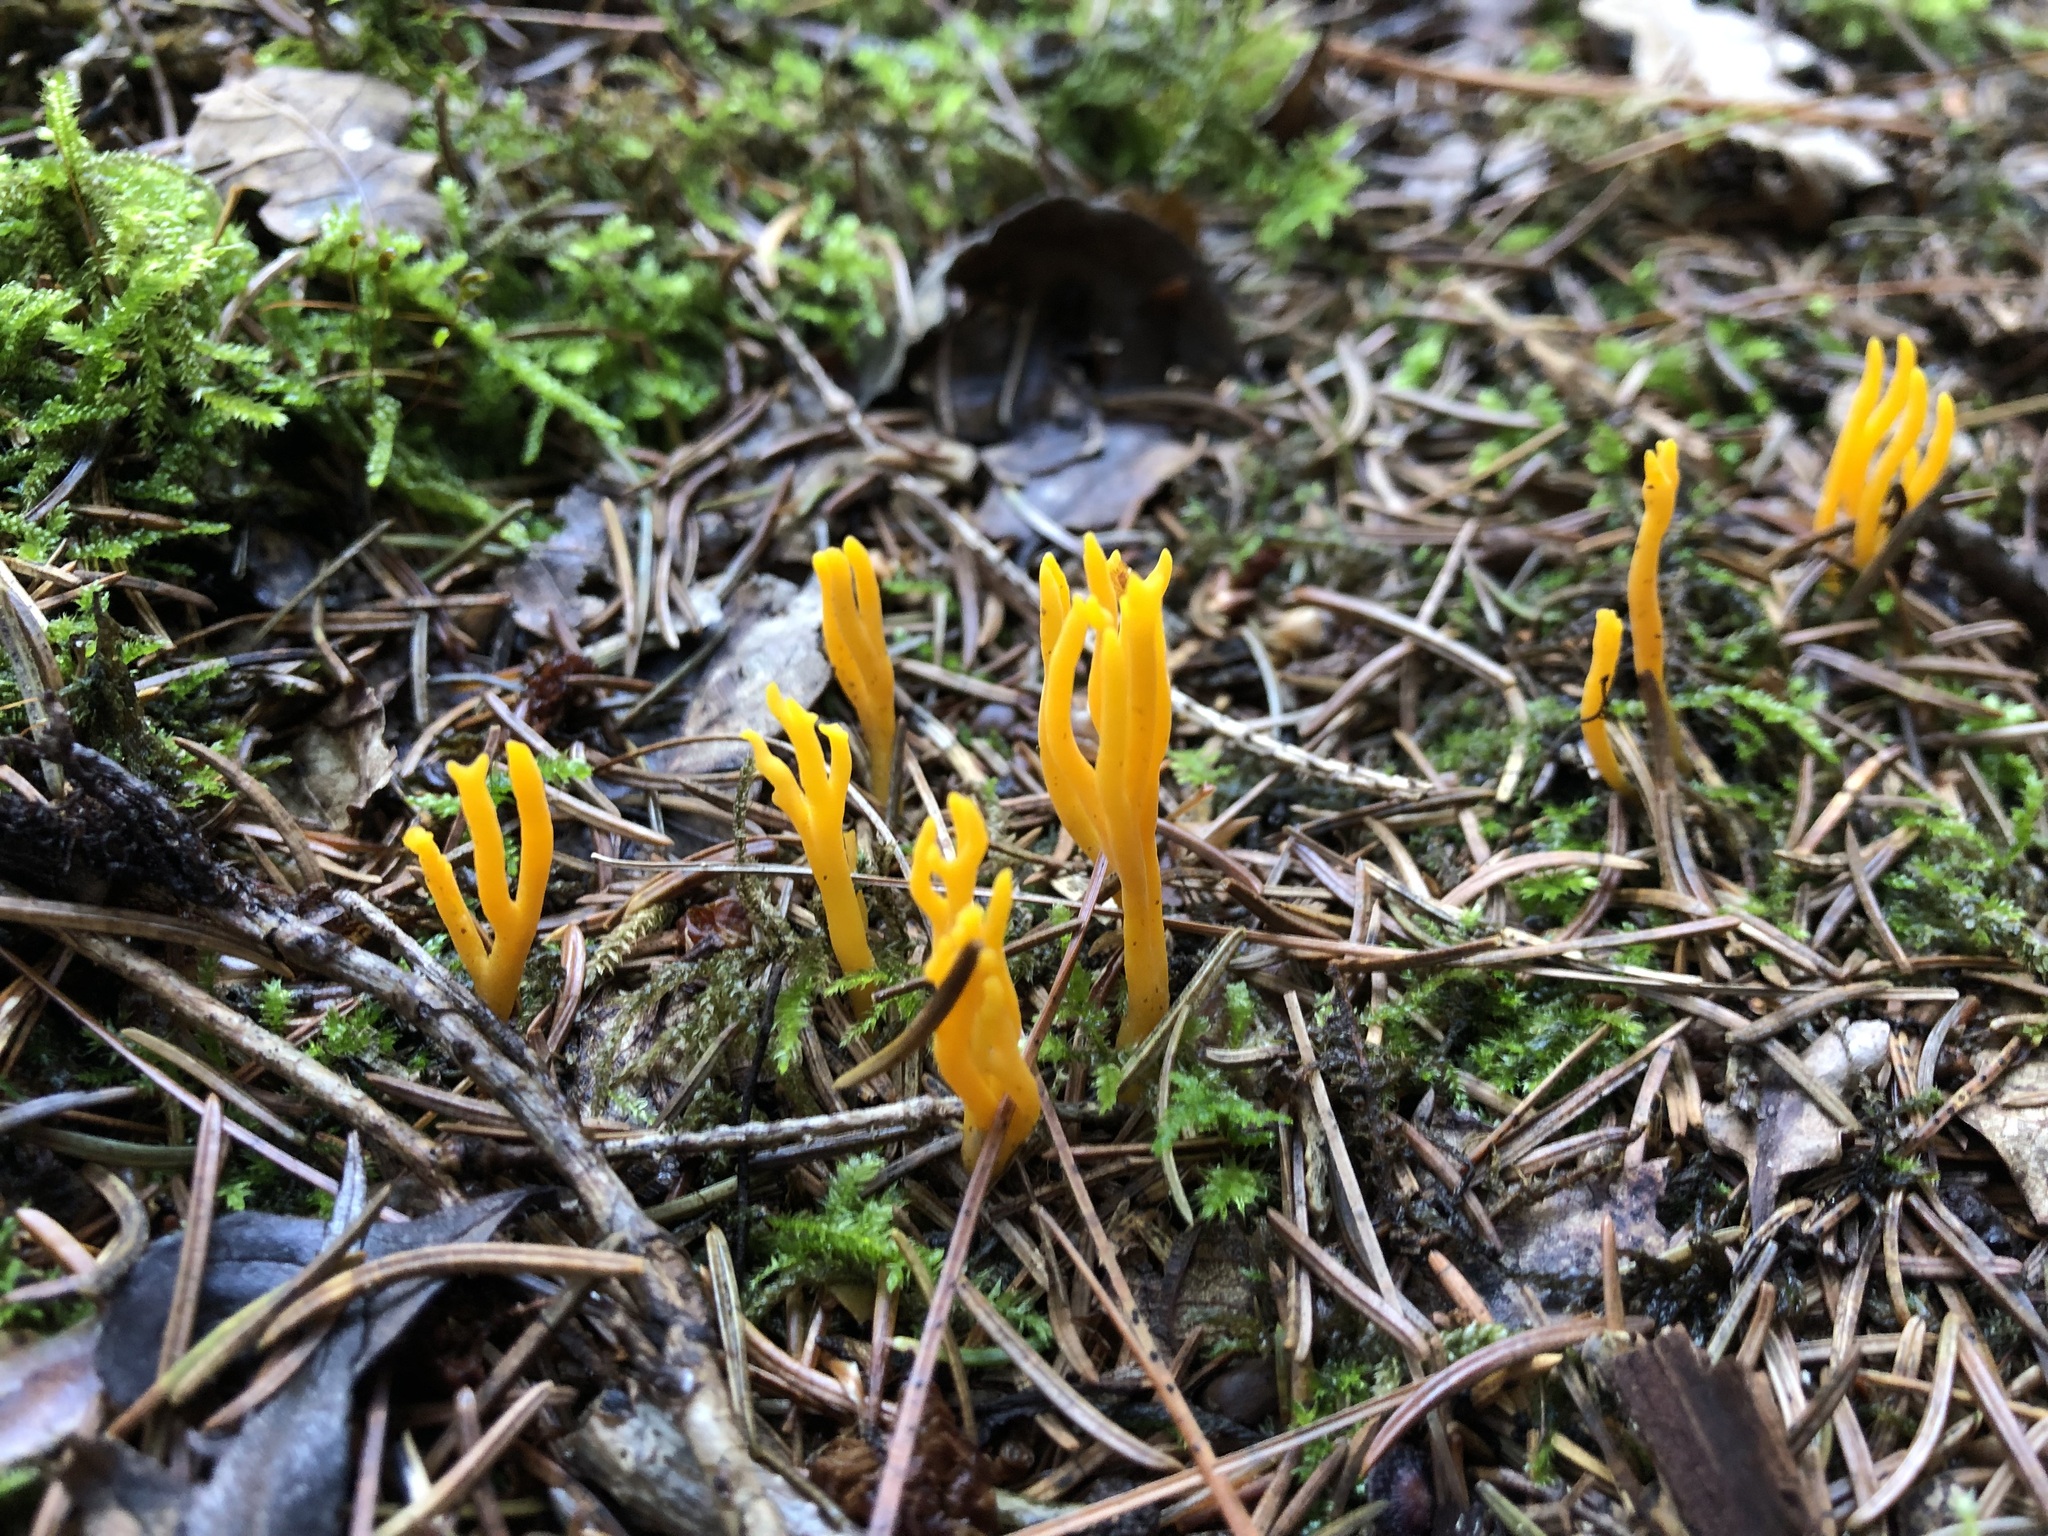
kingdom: Fungi
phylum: Basidiomycota
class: Dacrymycetes
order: Dacrymycetales
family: Dacrymycetaceae
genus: Calocera
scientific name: Calocera viscosa
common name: Yellow stagshorn
